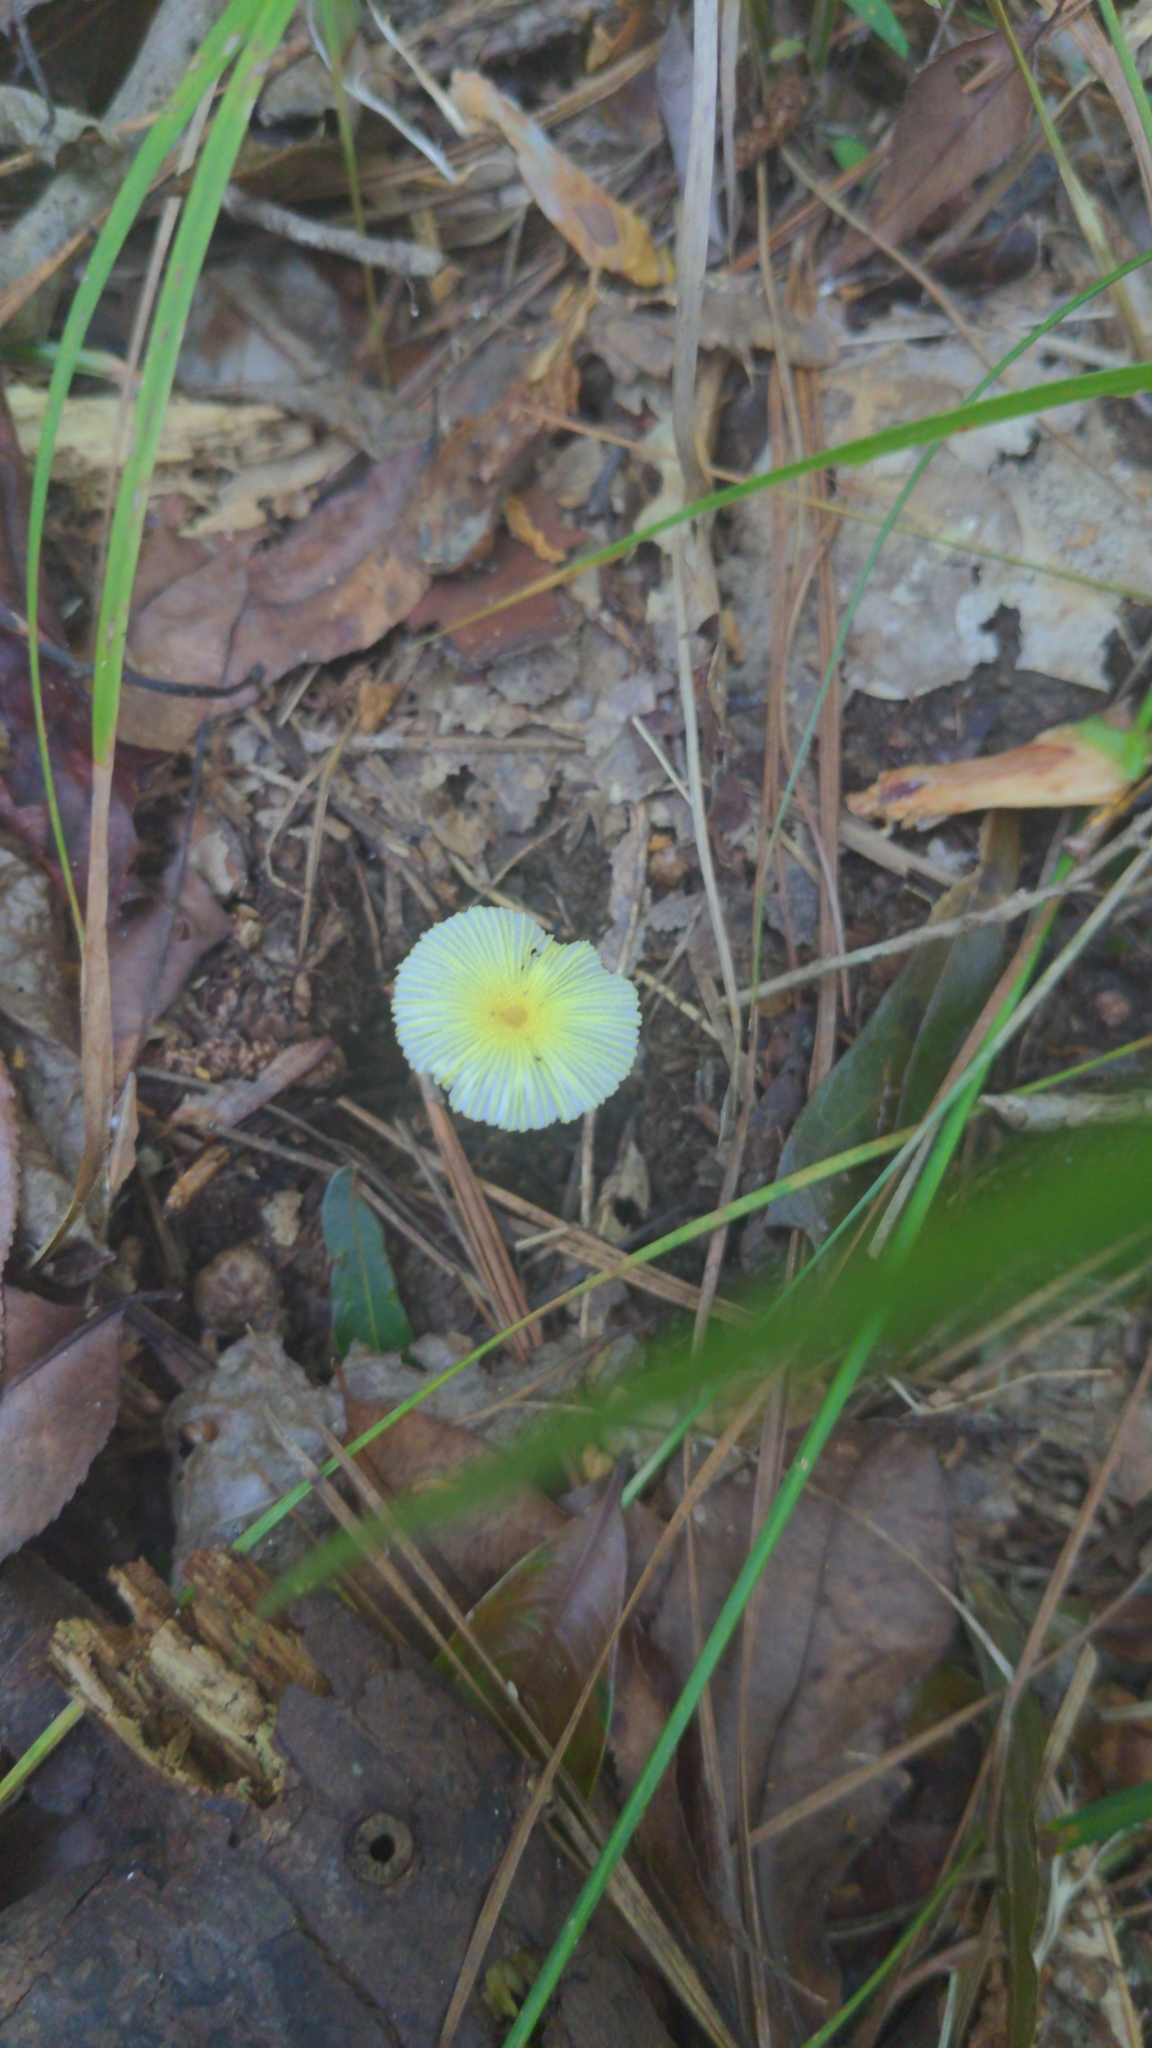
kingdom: Fungi
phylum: Basidiomycota
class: Agaricomycetes
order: Agaricales
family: Agaricaceae
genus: Leucocoprinus
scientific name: Leucocoprinus fragilissimus
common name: Fragile dapperling
